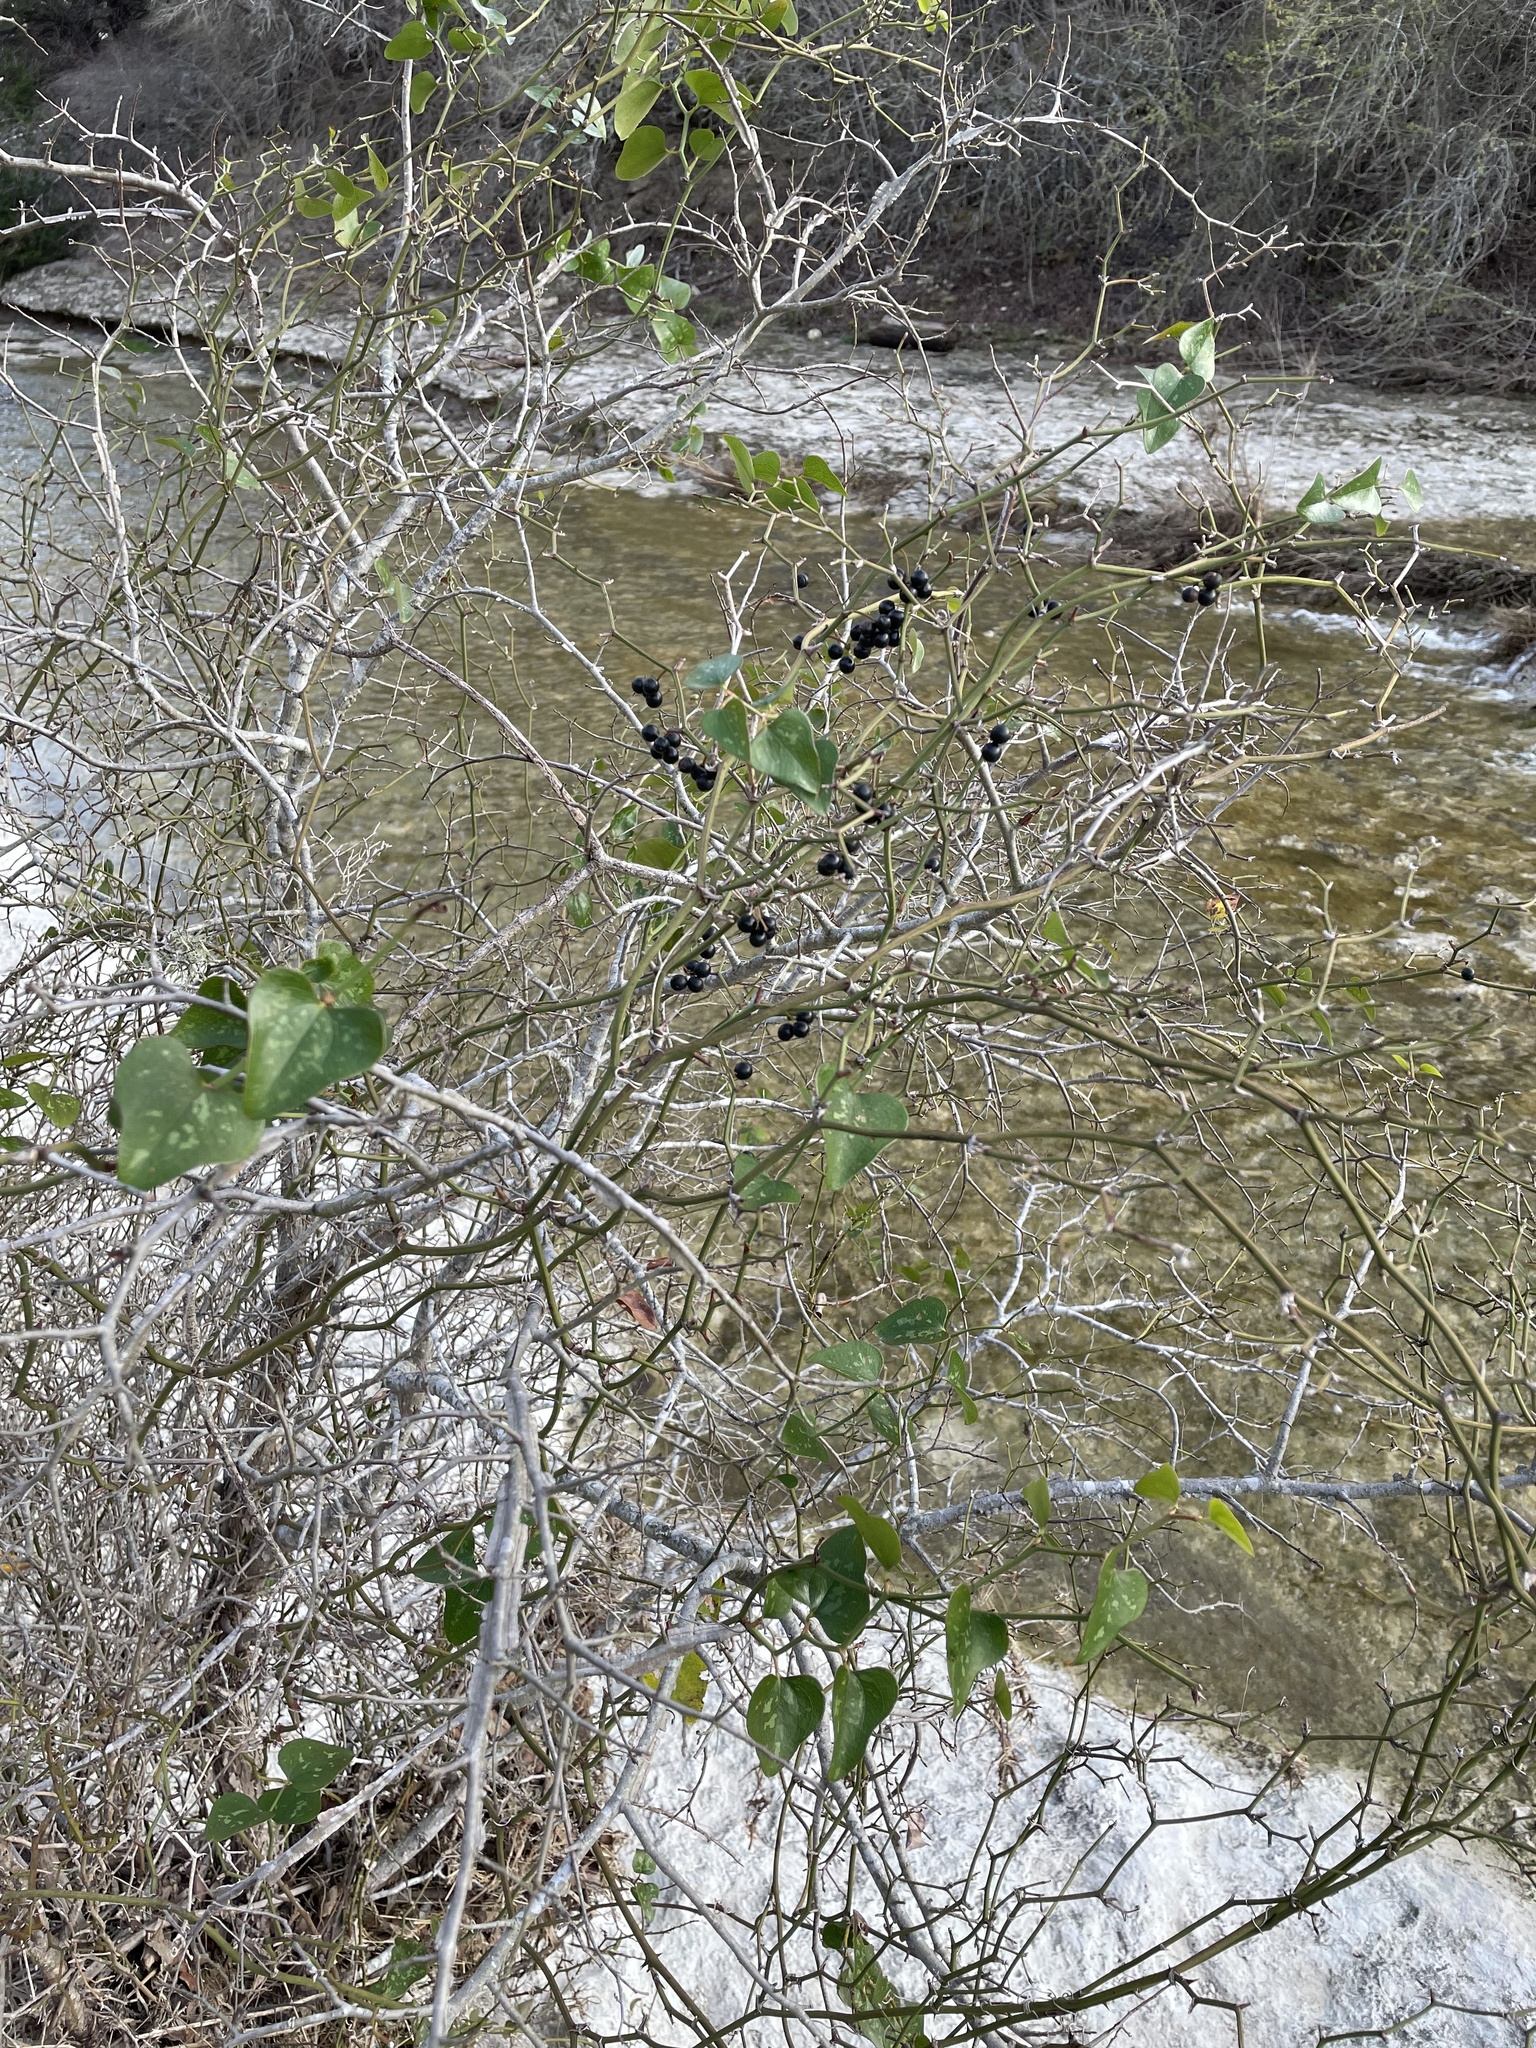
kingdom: Plantae
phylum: Tracheophyta
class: Liliopsida
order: Liliales
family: Smilacaceae
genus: Smilax
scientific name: Smilax bona-nox
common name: Catbrier
